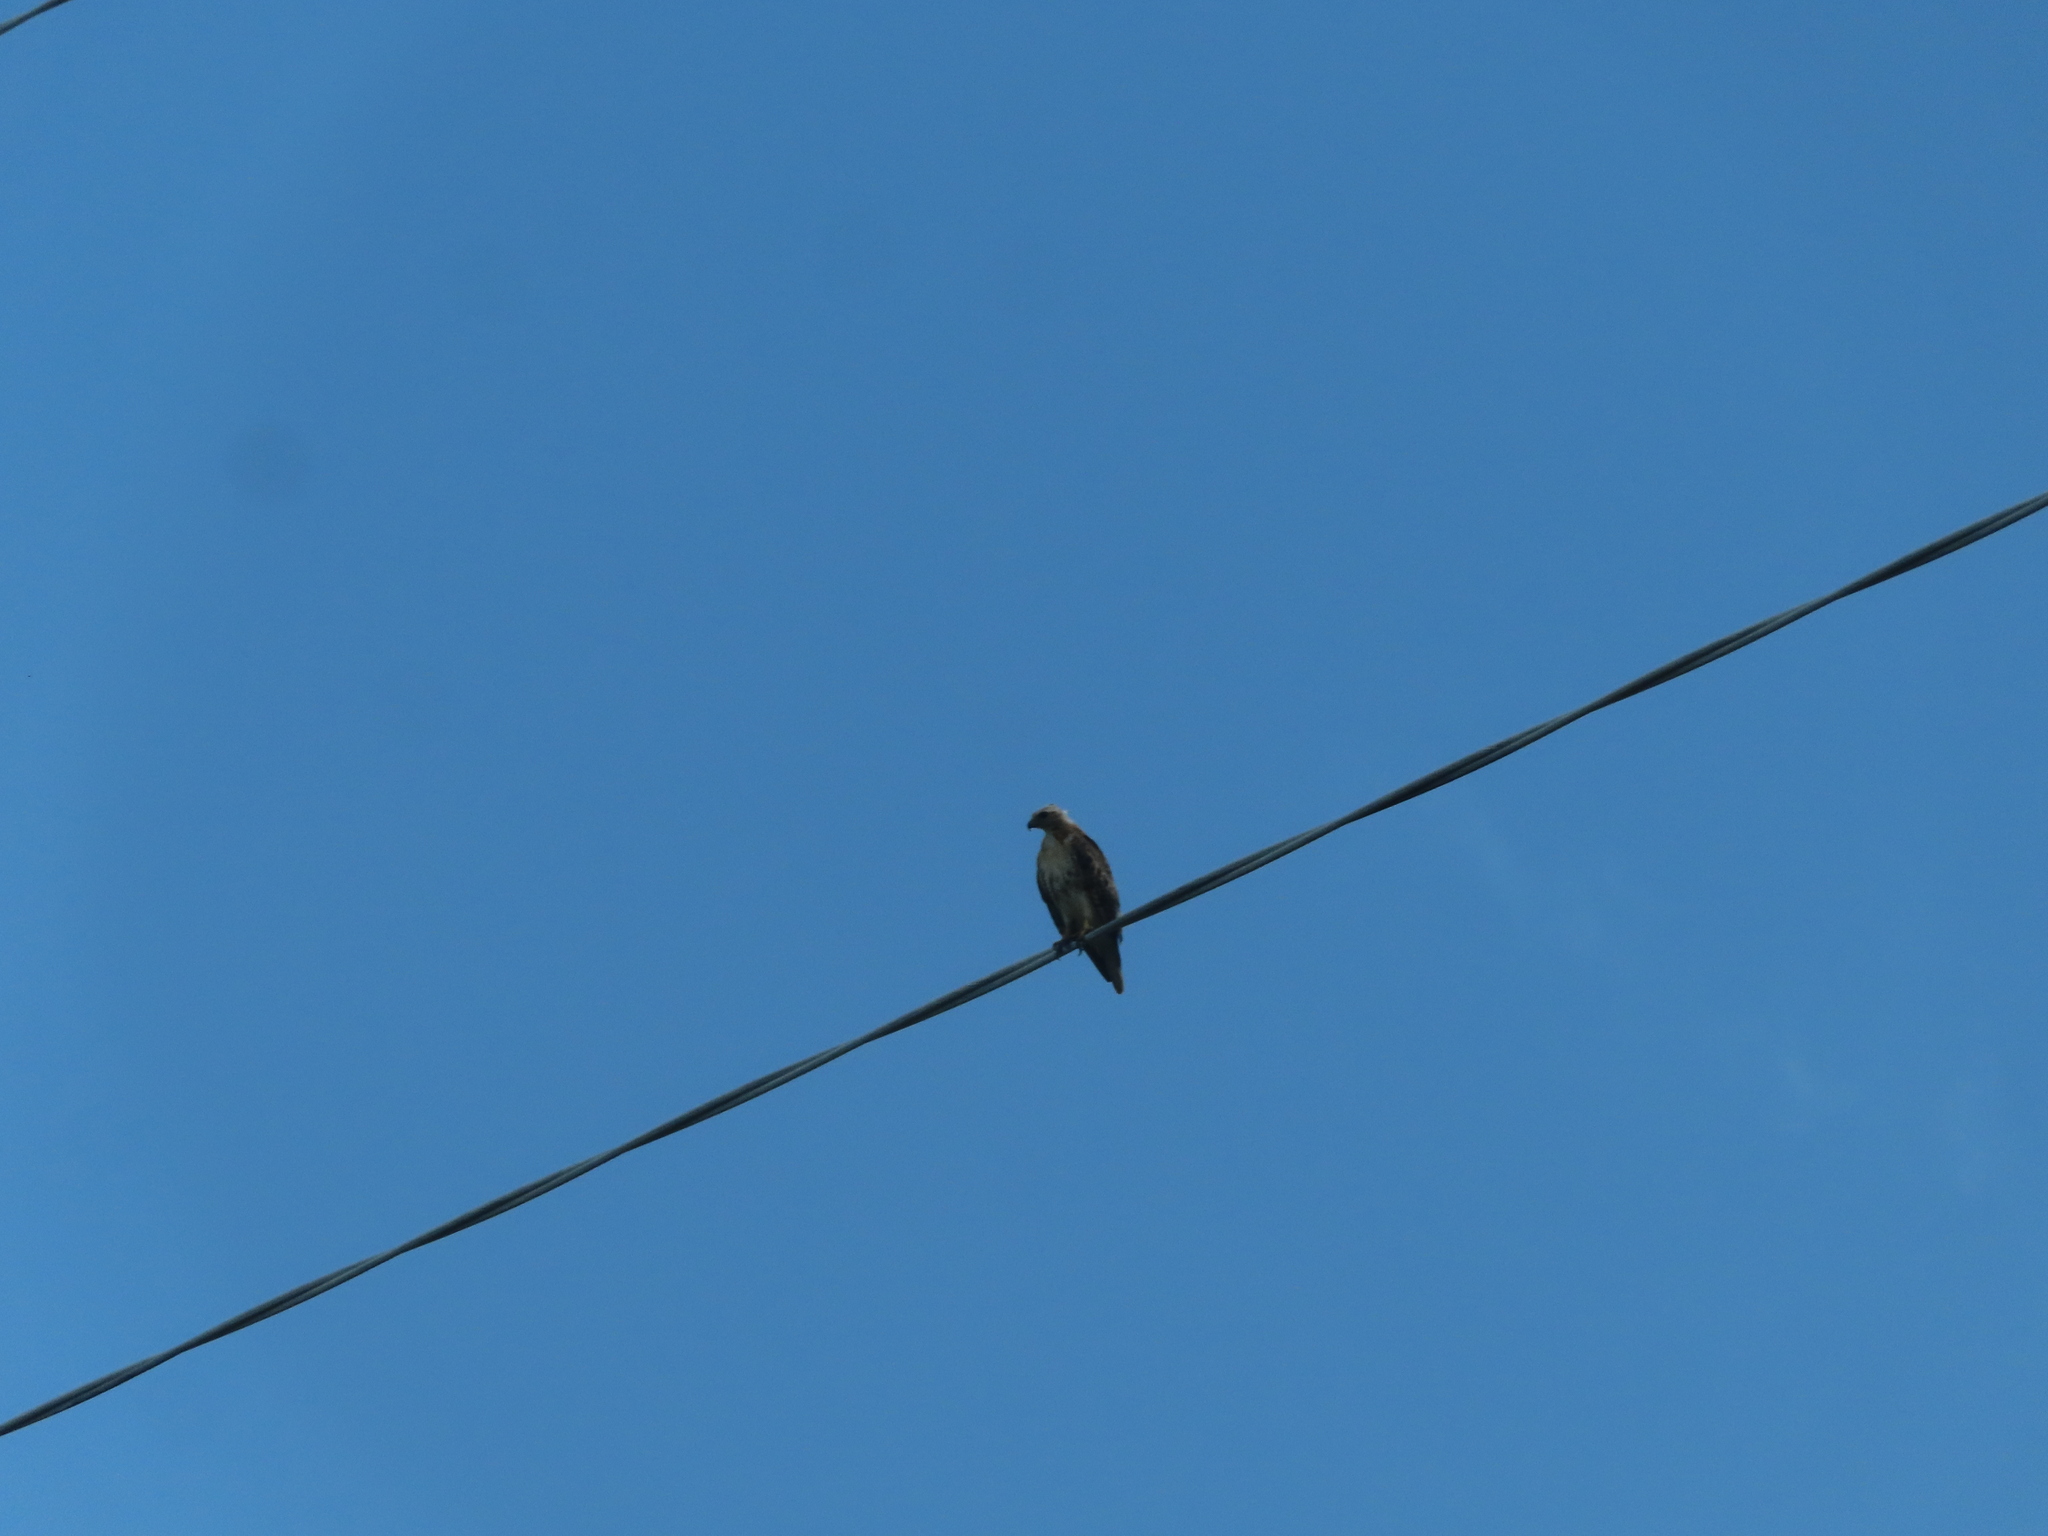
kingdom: Animalia
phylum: Chordata
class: Aves
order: Accipitriformes
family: Accipitridae
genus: Buteo
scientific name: Buteo jamaicensis
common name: Red-tailed hawk
